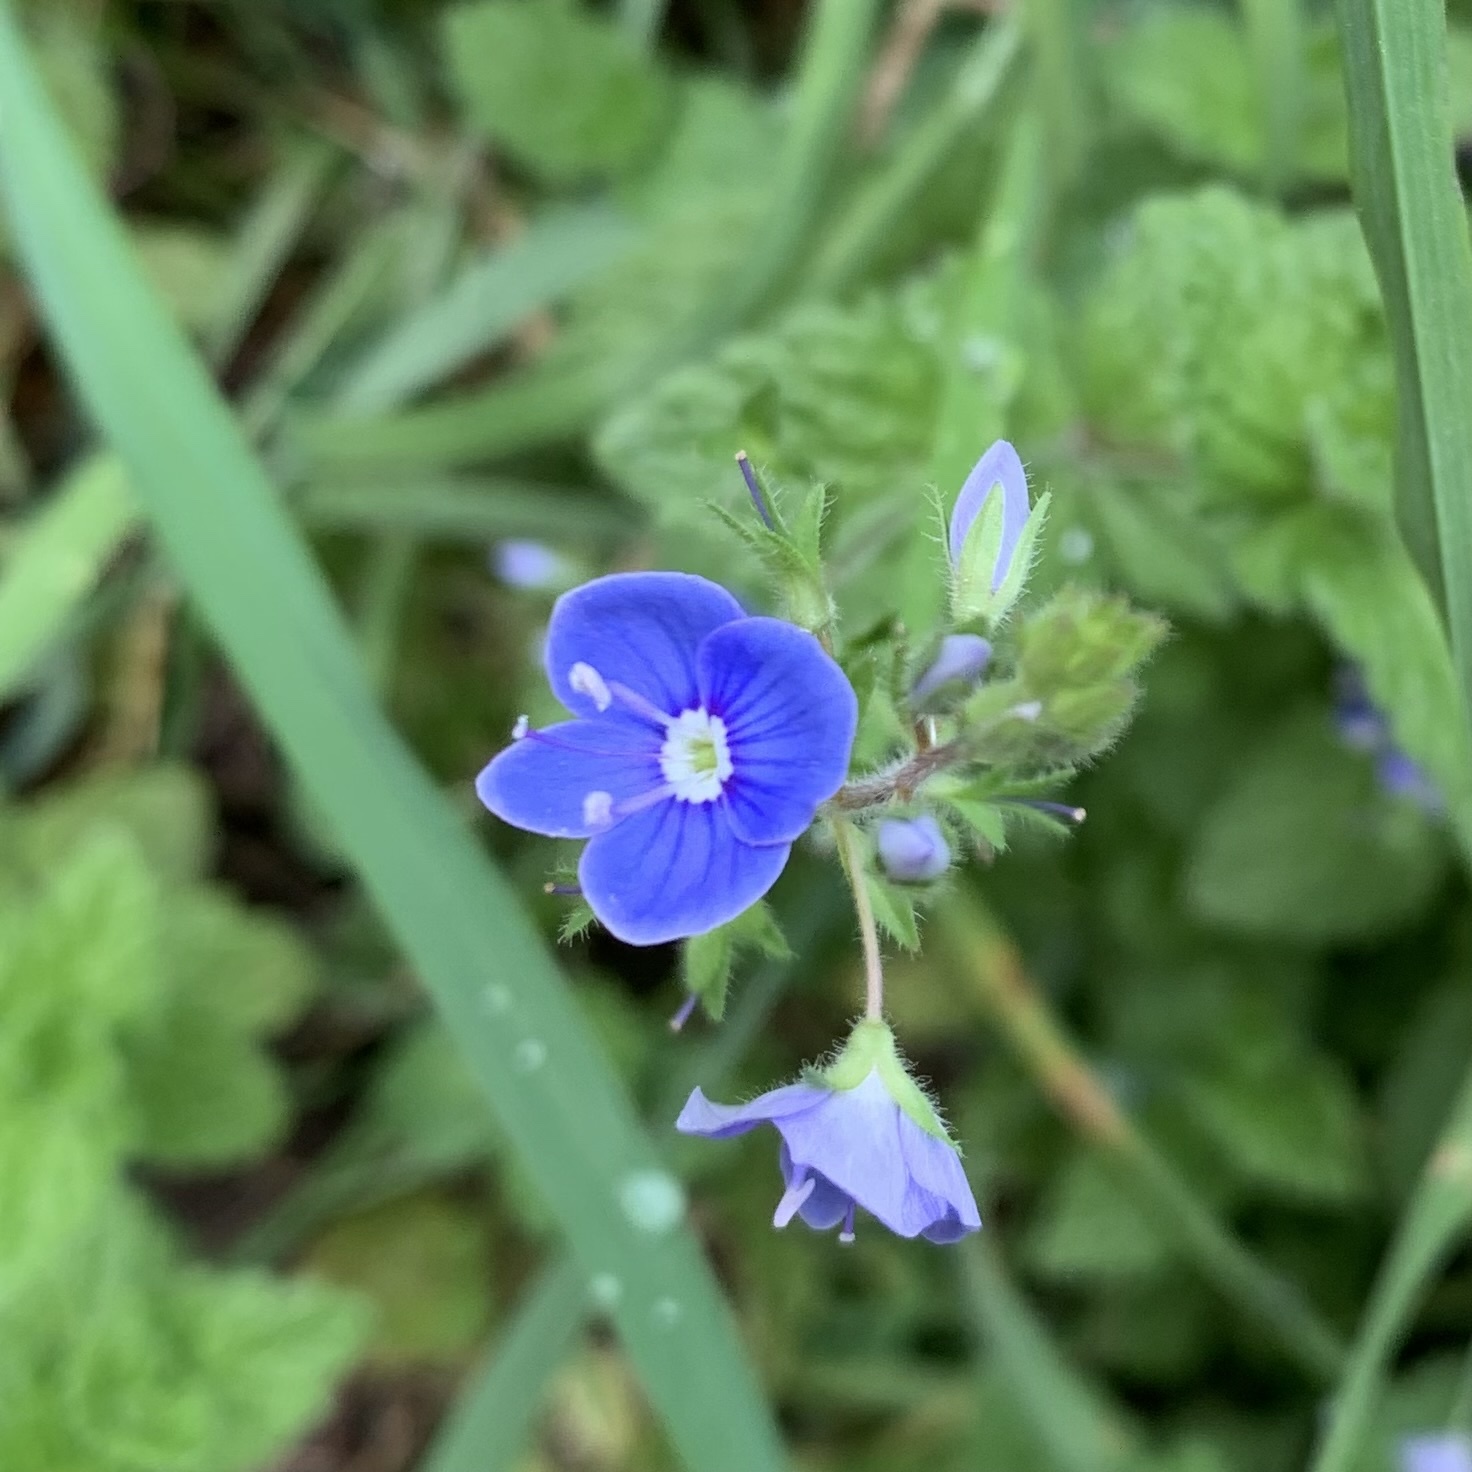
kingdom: Plantae
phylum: Tracheophyta
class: Magnoliopsida
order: Lamiales
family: Plantaginaceae
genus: Veronica
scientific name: Veronica chamaedrys
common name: Germander speedwell
